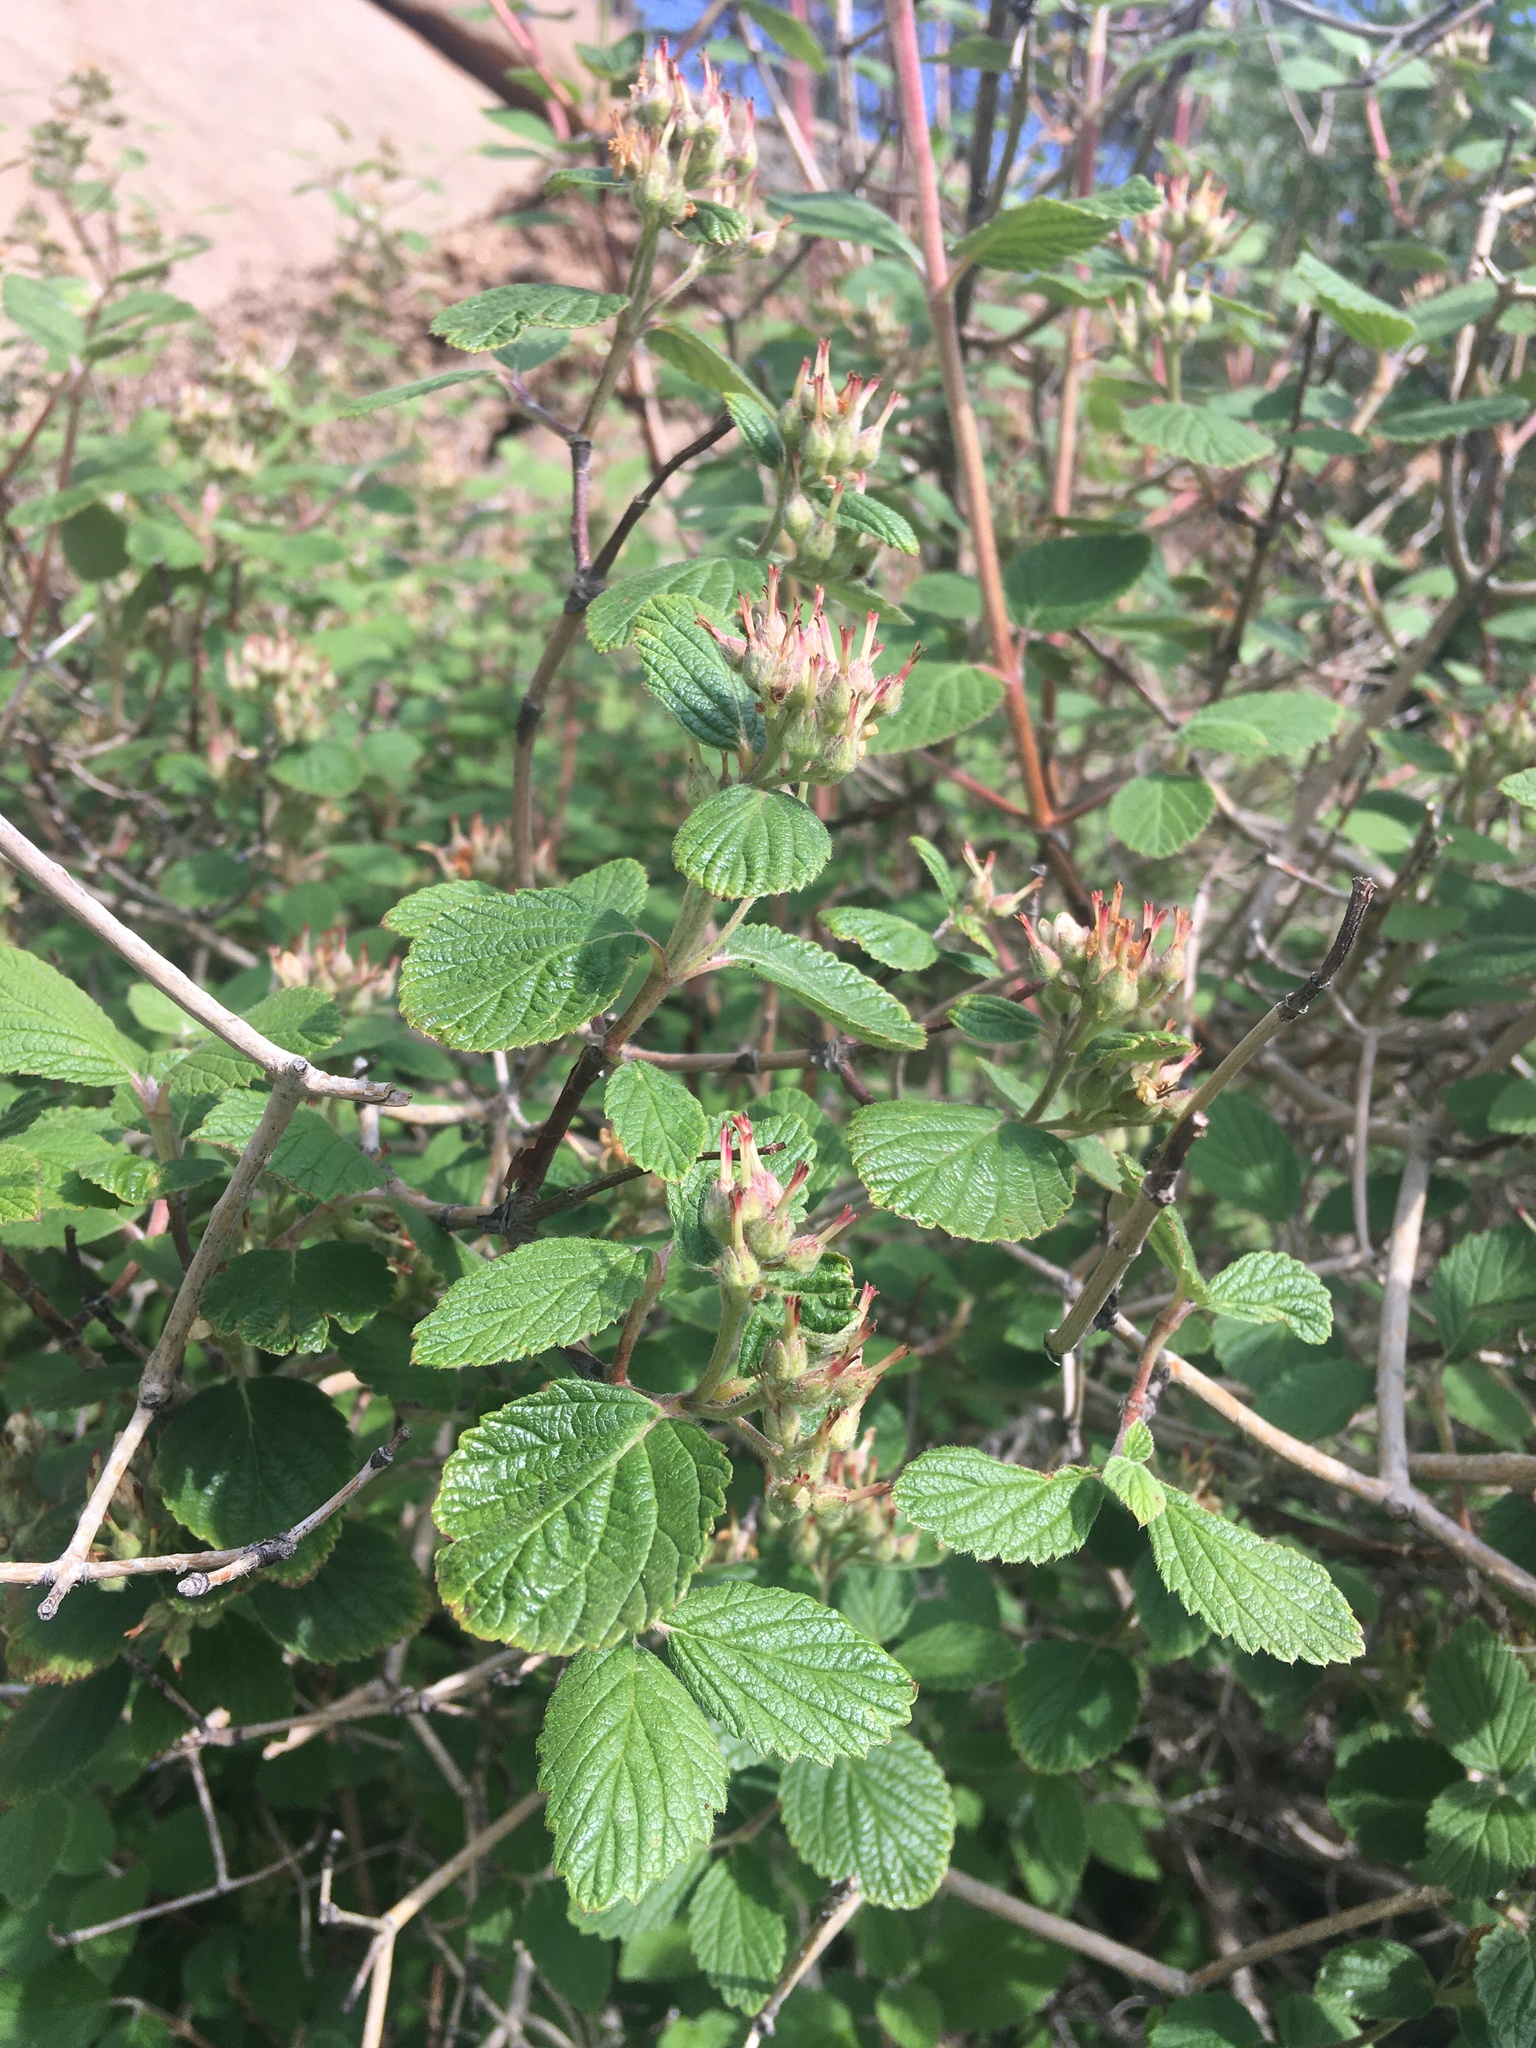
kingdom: Plantae
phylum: Tracheophyta
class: Magnoliopsida
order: Cornales
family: Hydrangeaceae
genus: Jamesia
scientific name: Jamesia americana
